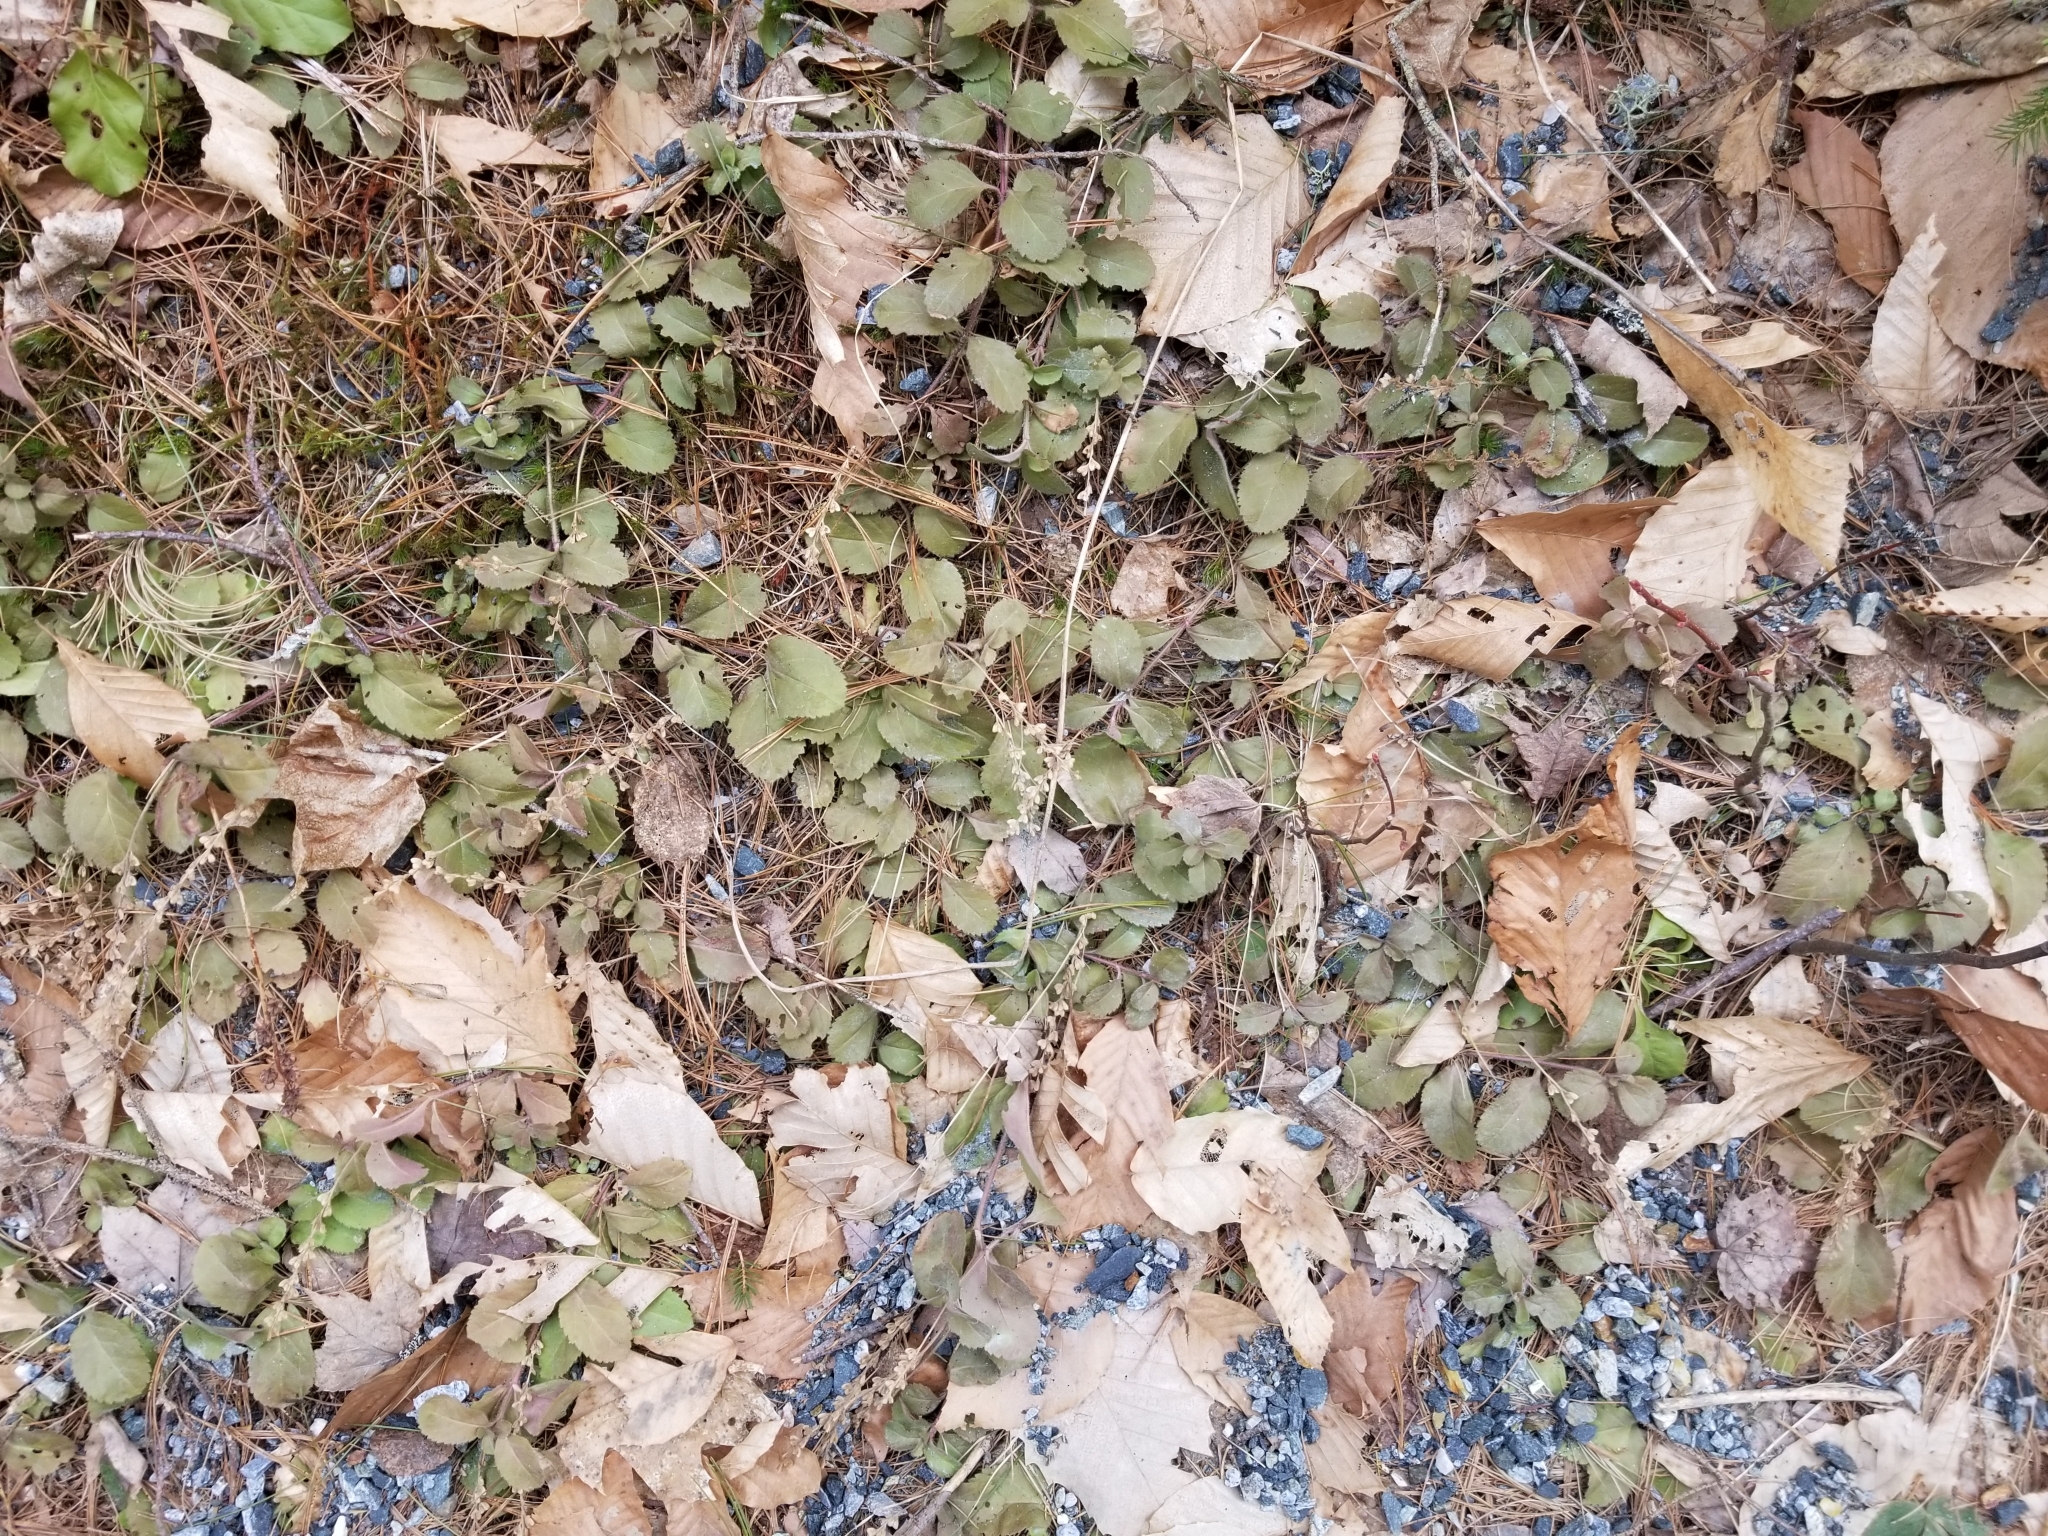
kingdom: Plantae
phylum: Tracheophyta
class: Magnoliopsida
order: Lamiales
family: Plantaginaceae
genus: Veronica
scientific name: Veronica officinalis
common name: Common speedwell
